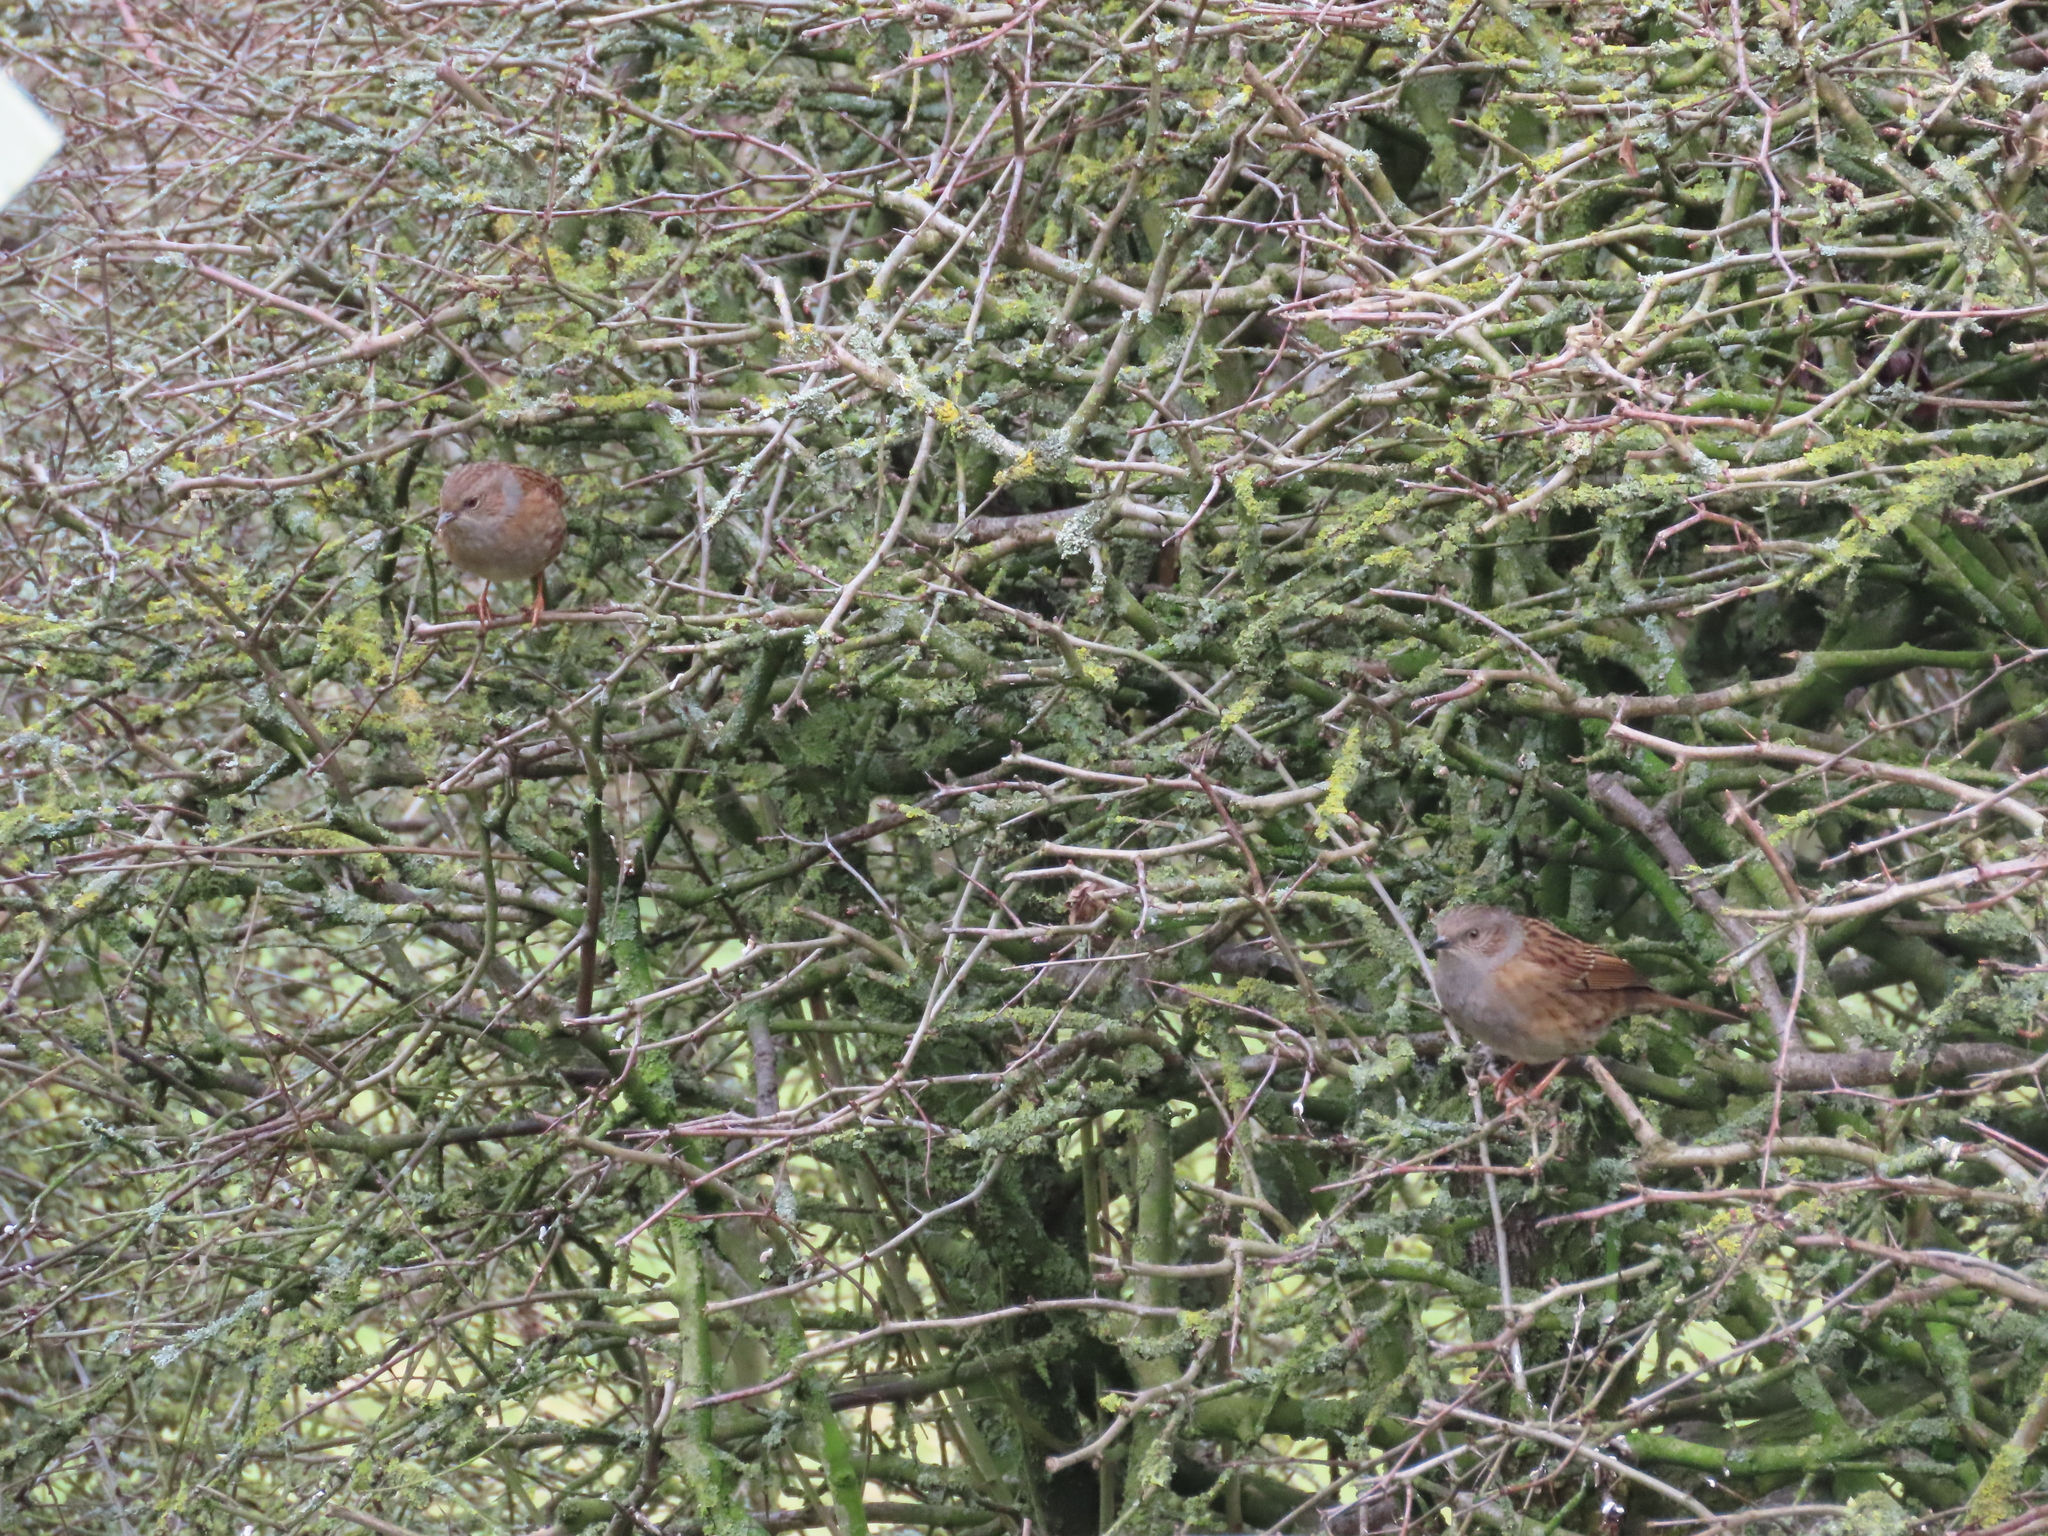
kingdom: Animalia
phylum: Chordata
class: Aves
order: Passeriformes
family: Prunellidae
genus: Prunella
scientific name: Prunella modularis
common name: Dunnock
